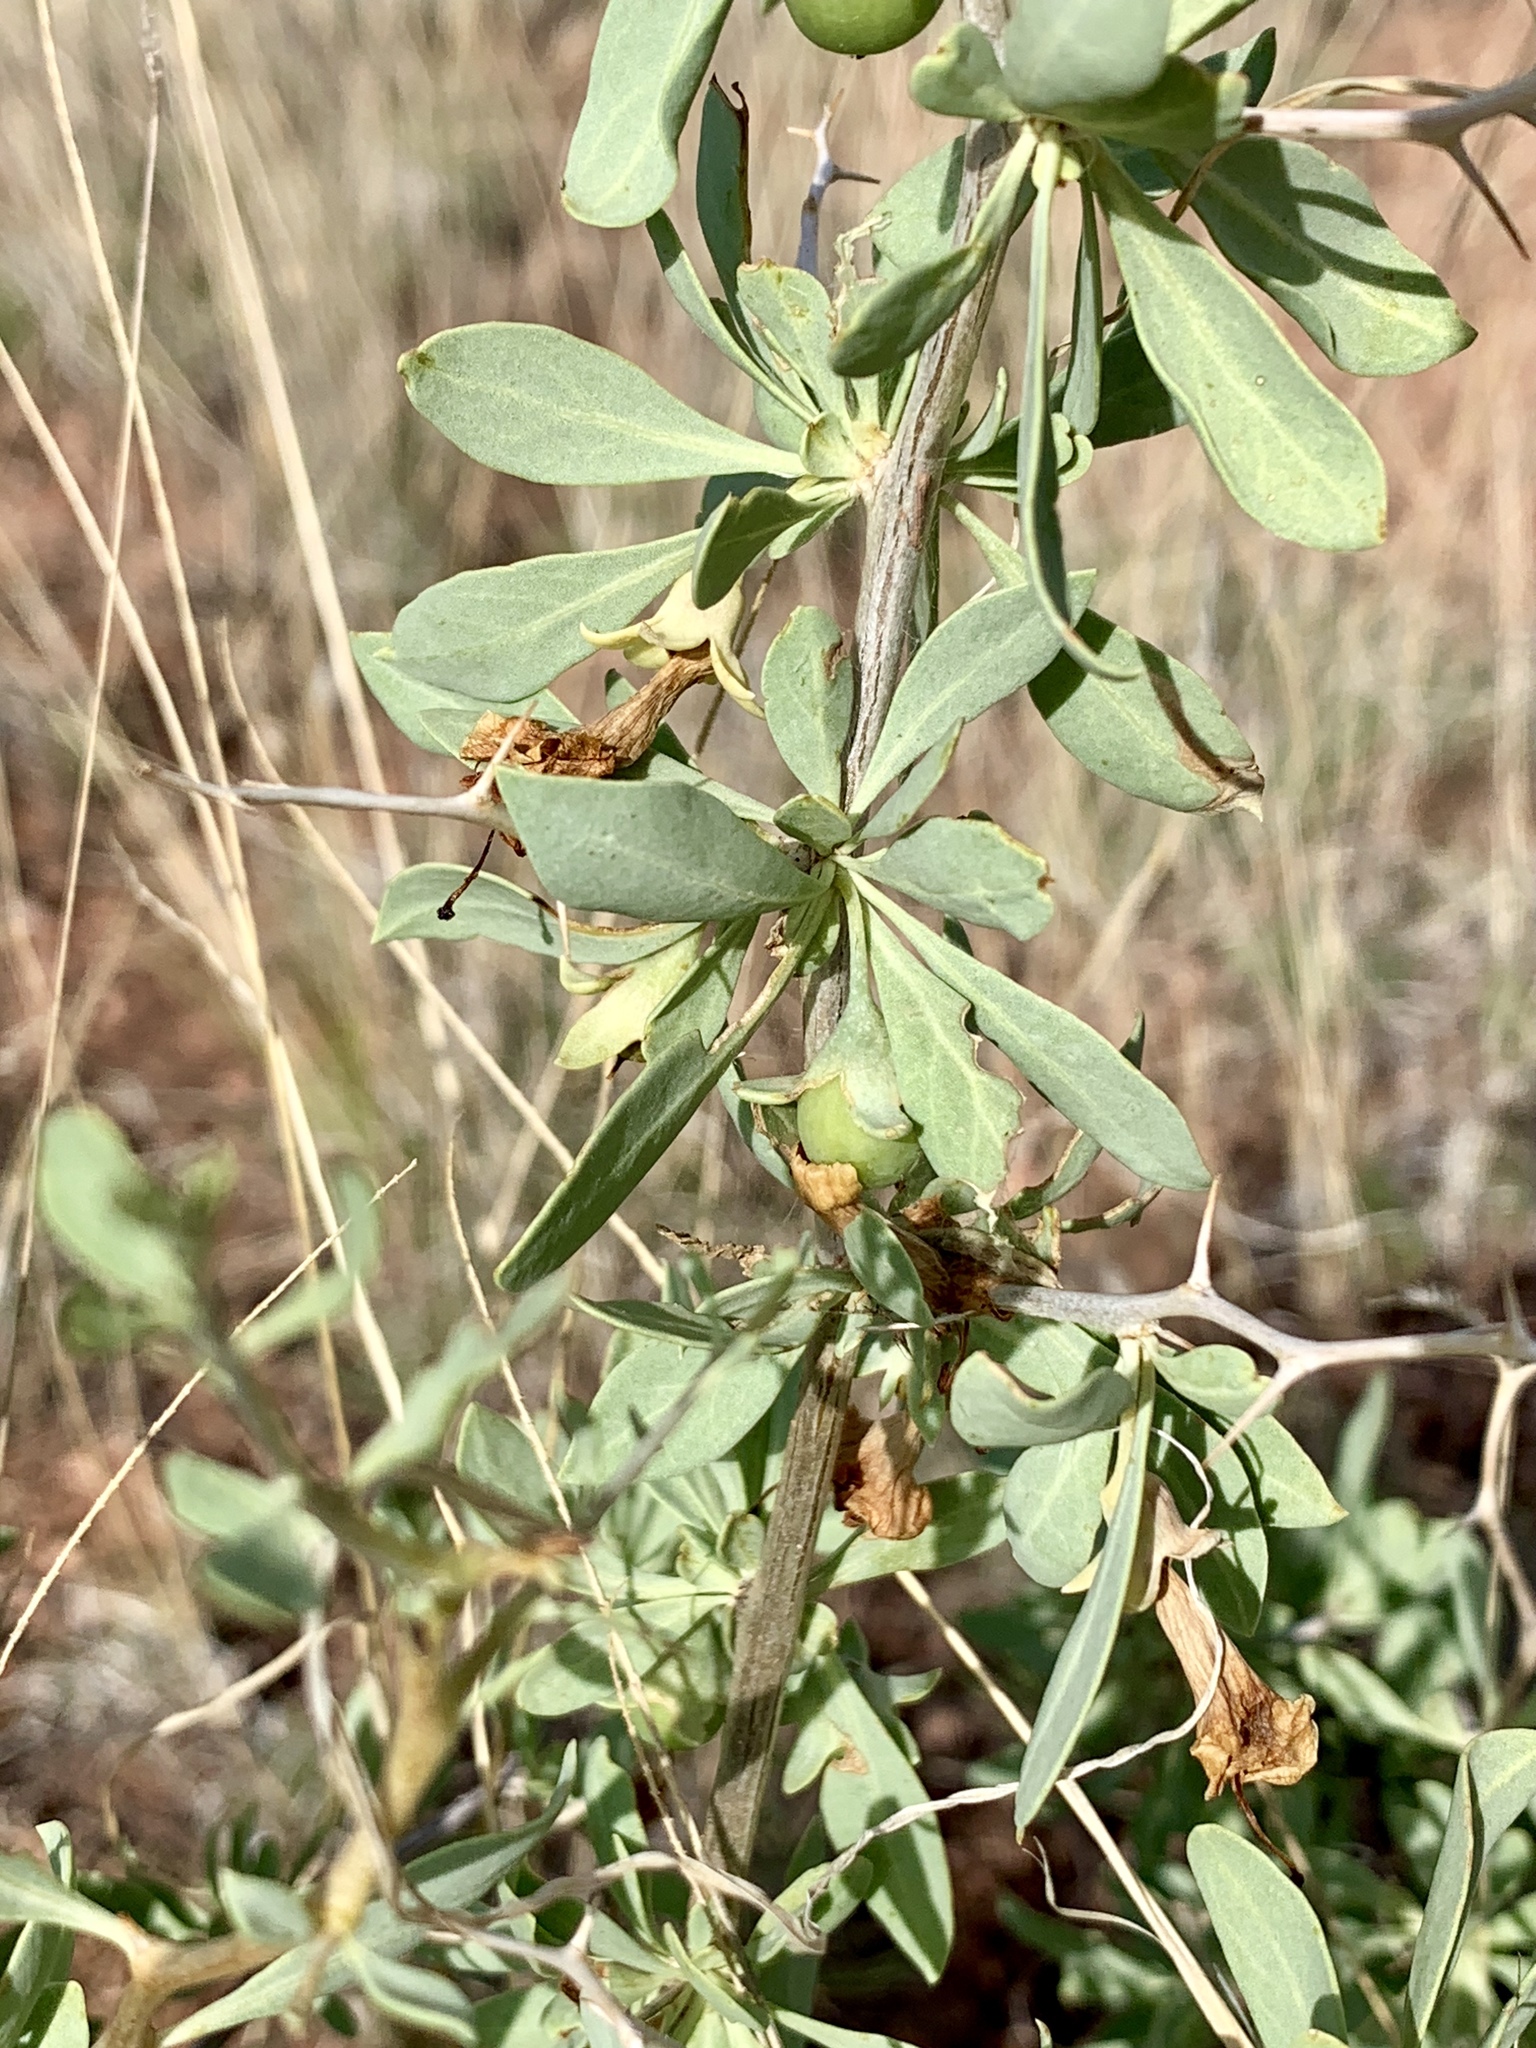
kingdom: Plantae
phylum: Tracheophyta
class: Magnoliopsida
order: Solanales
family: Solanaceae
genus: Lycium
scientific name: Lycium pallidum
